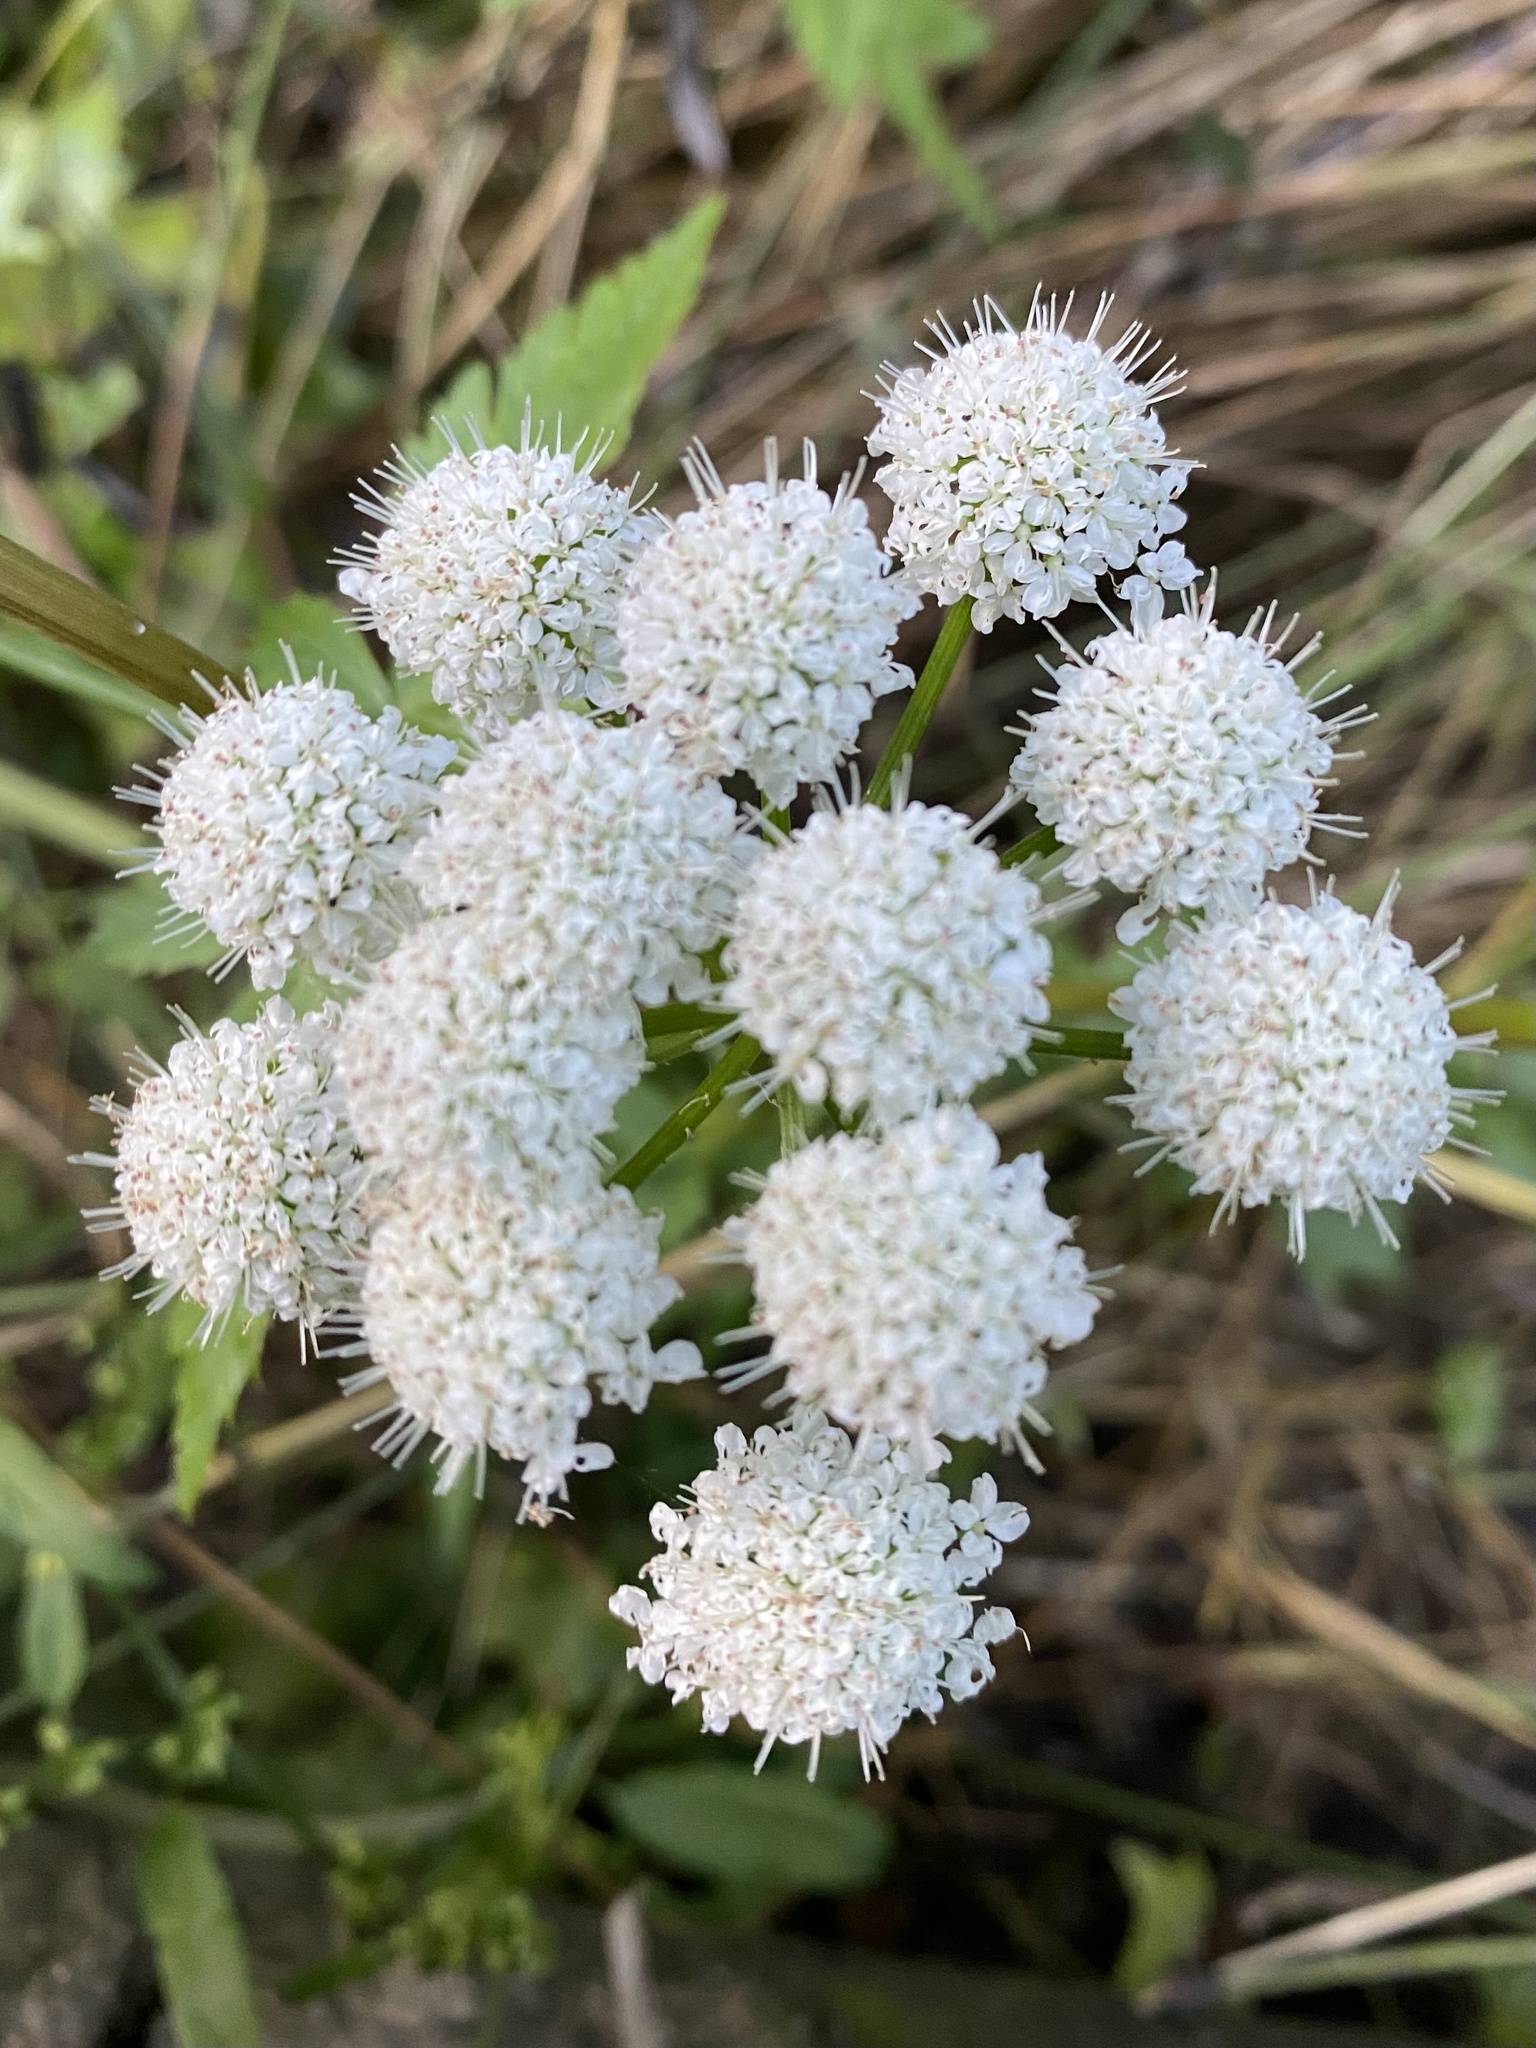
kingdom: Plantae
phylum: Tracheophyta
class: Magnoliopsida
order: Apiales
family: Apiaceae
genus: Oenanthe
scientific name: Oenanthe sarmentosa
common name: American water-parsley
